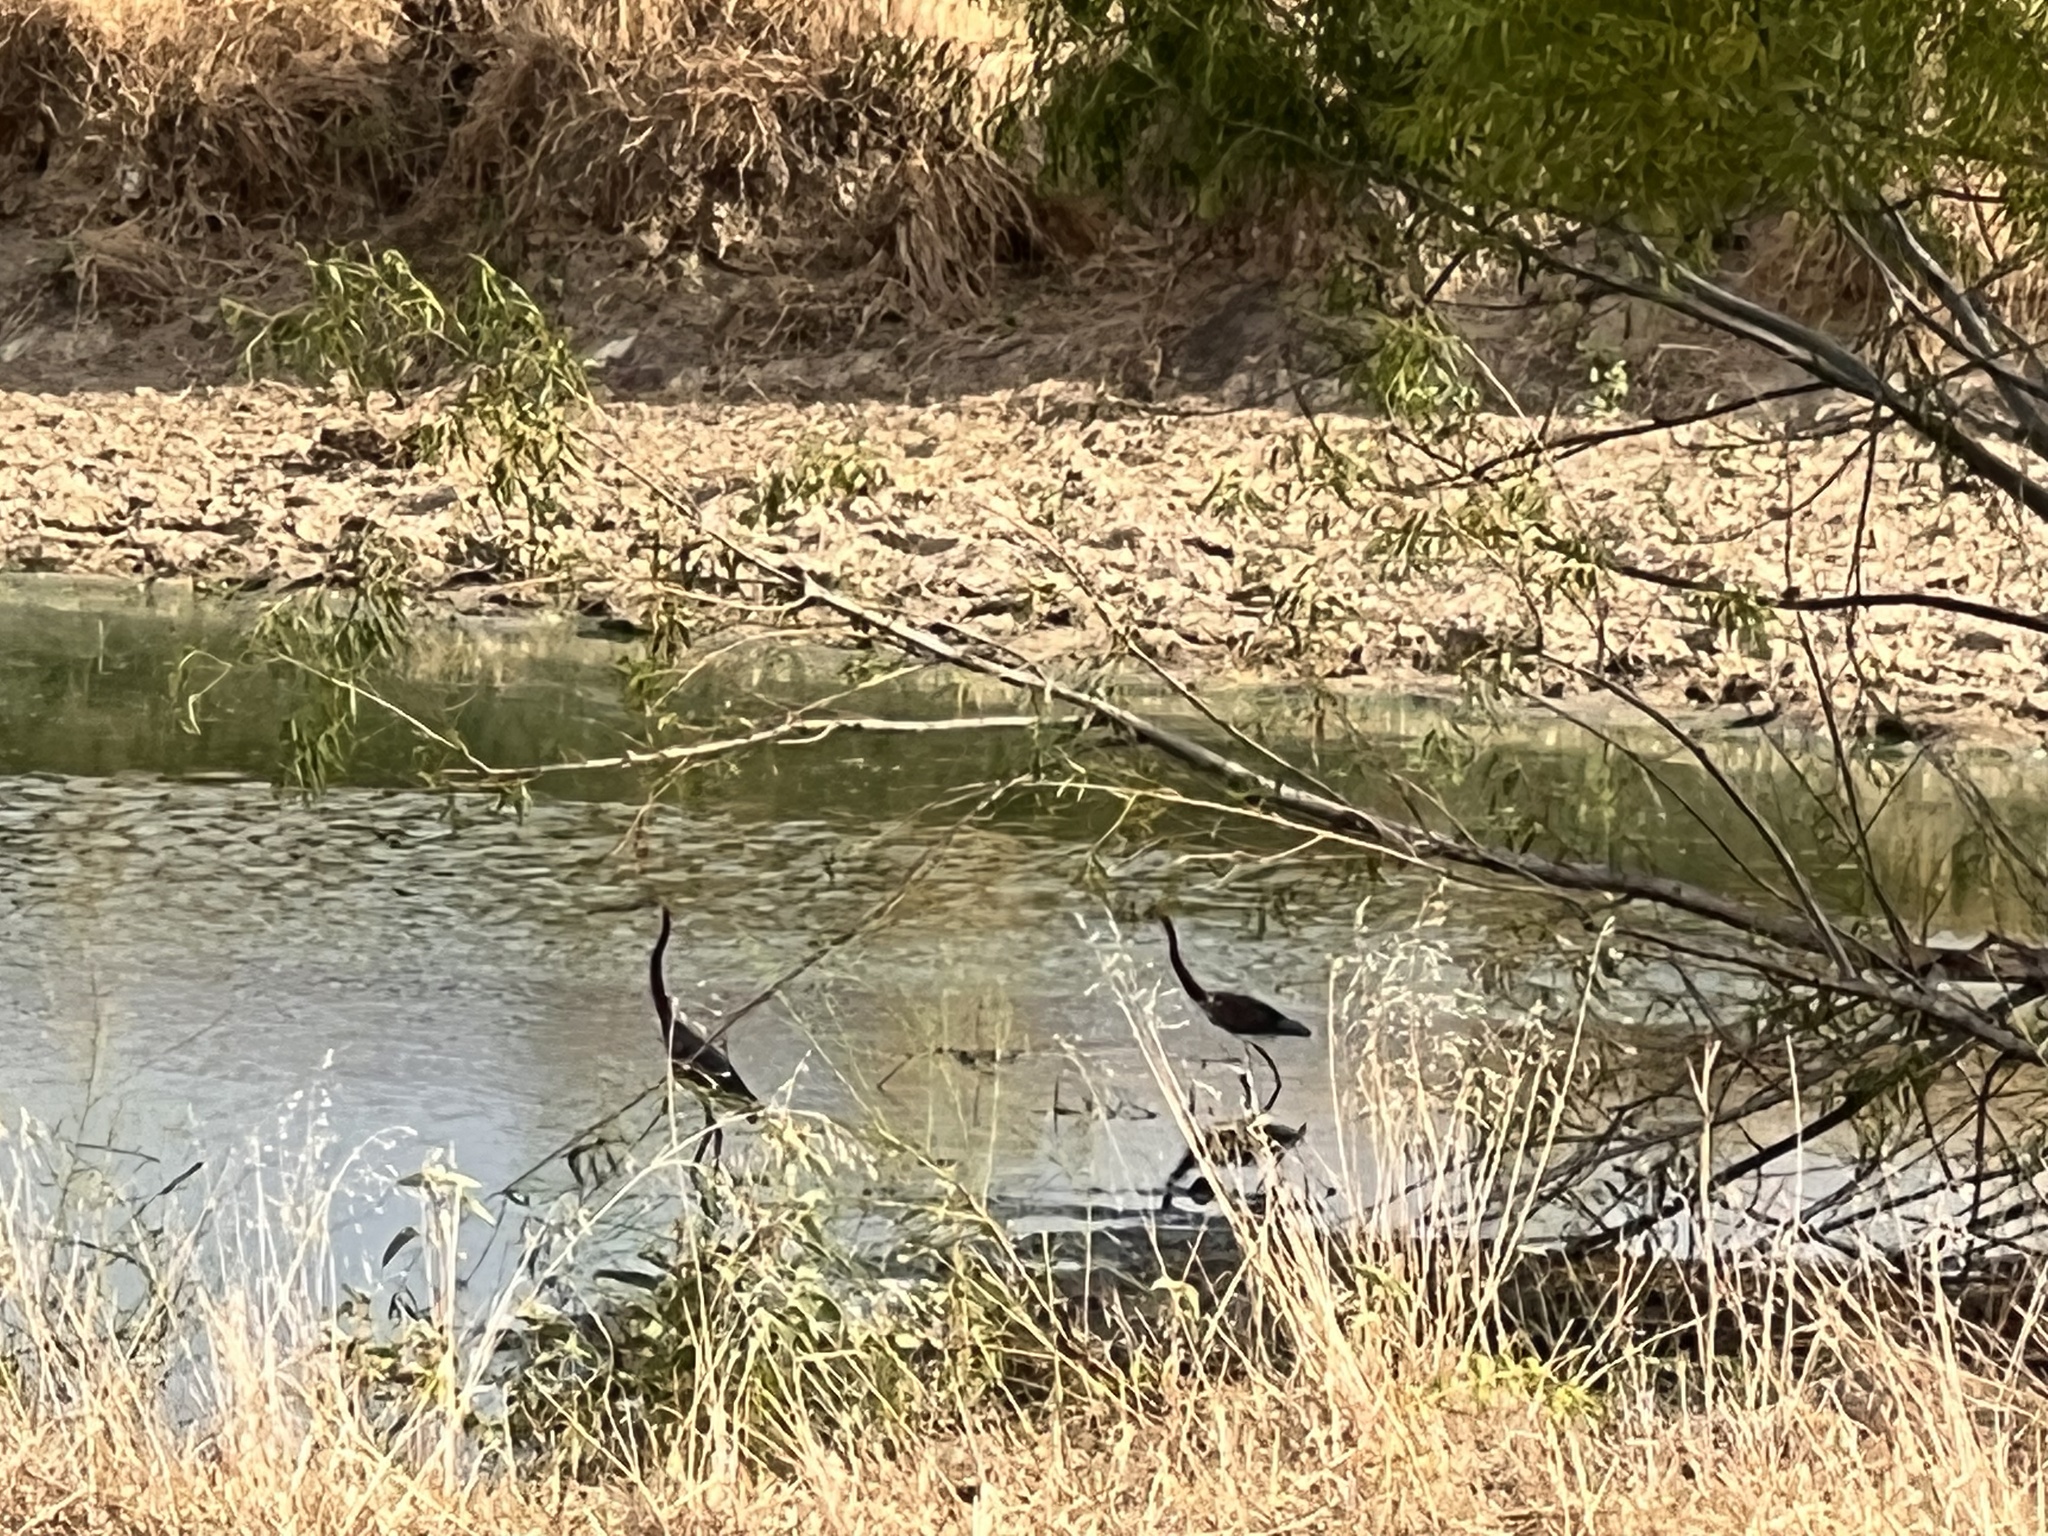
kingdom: Animalia
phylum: Chordata
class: Aves
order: Pelecaniformes
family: Ardeidae
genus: Egretta
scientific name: Egretta tricolor
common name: Tricolored heron
